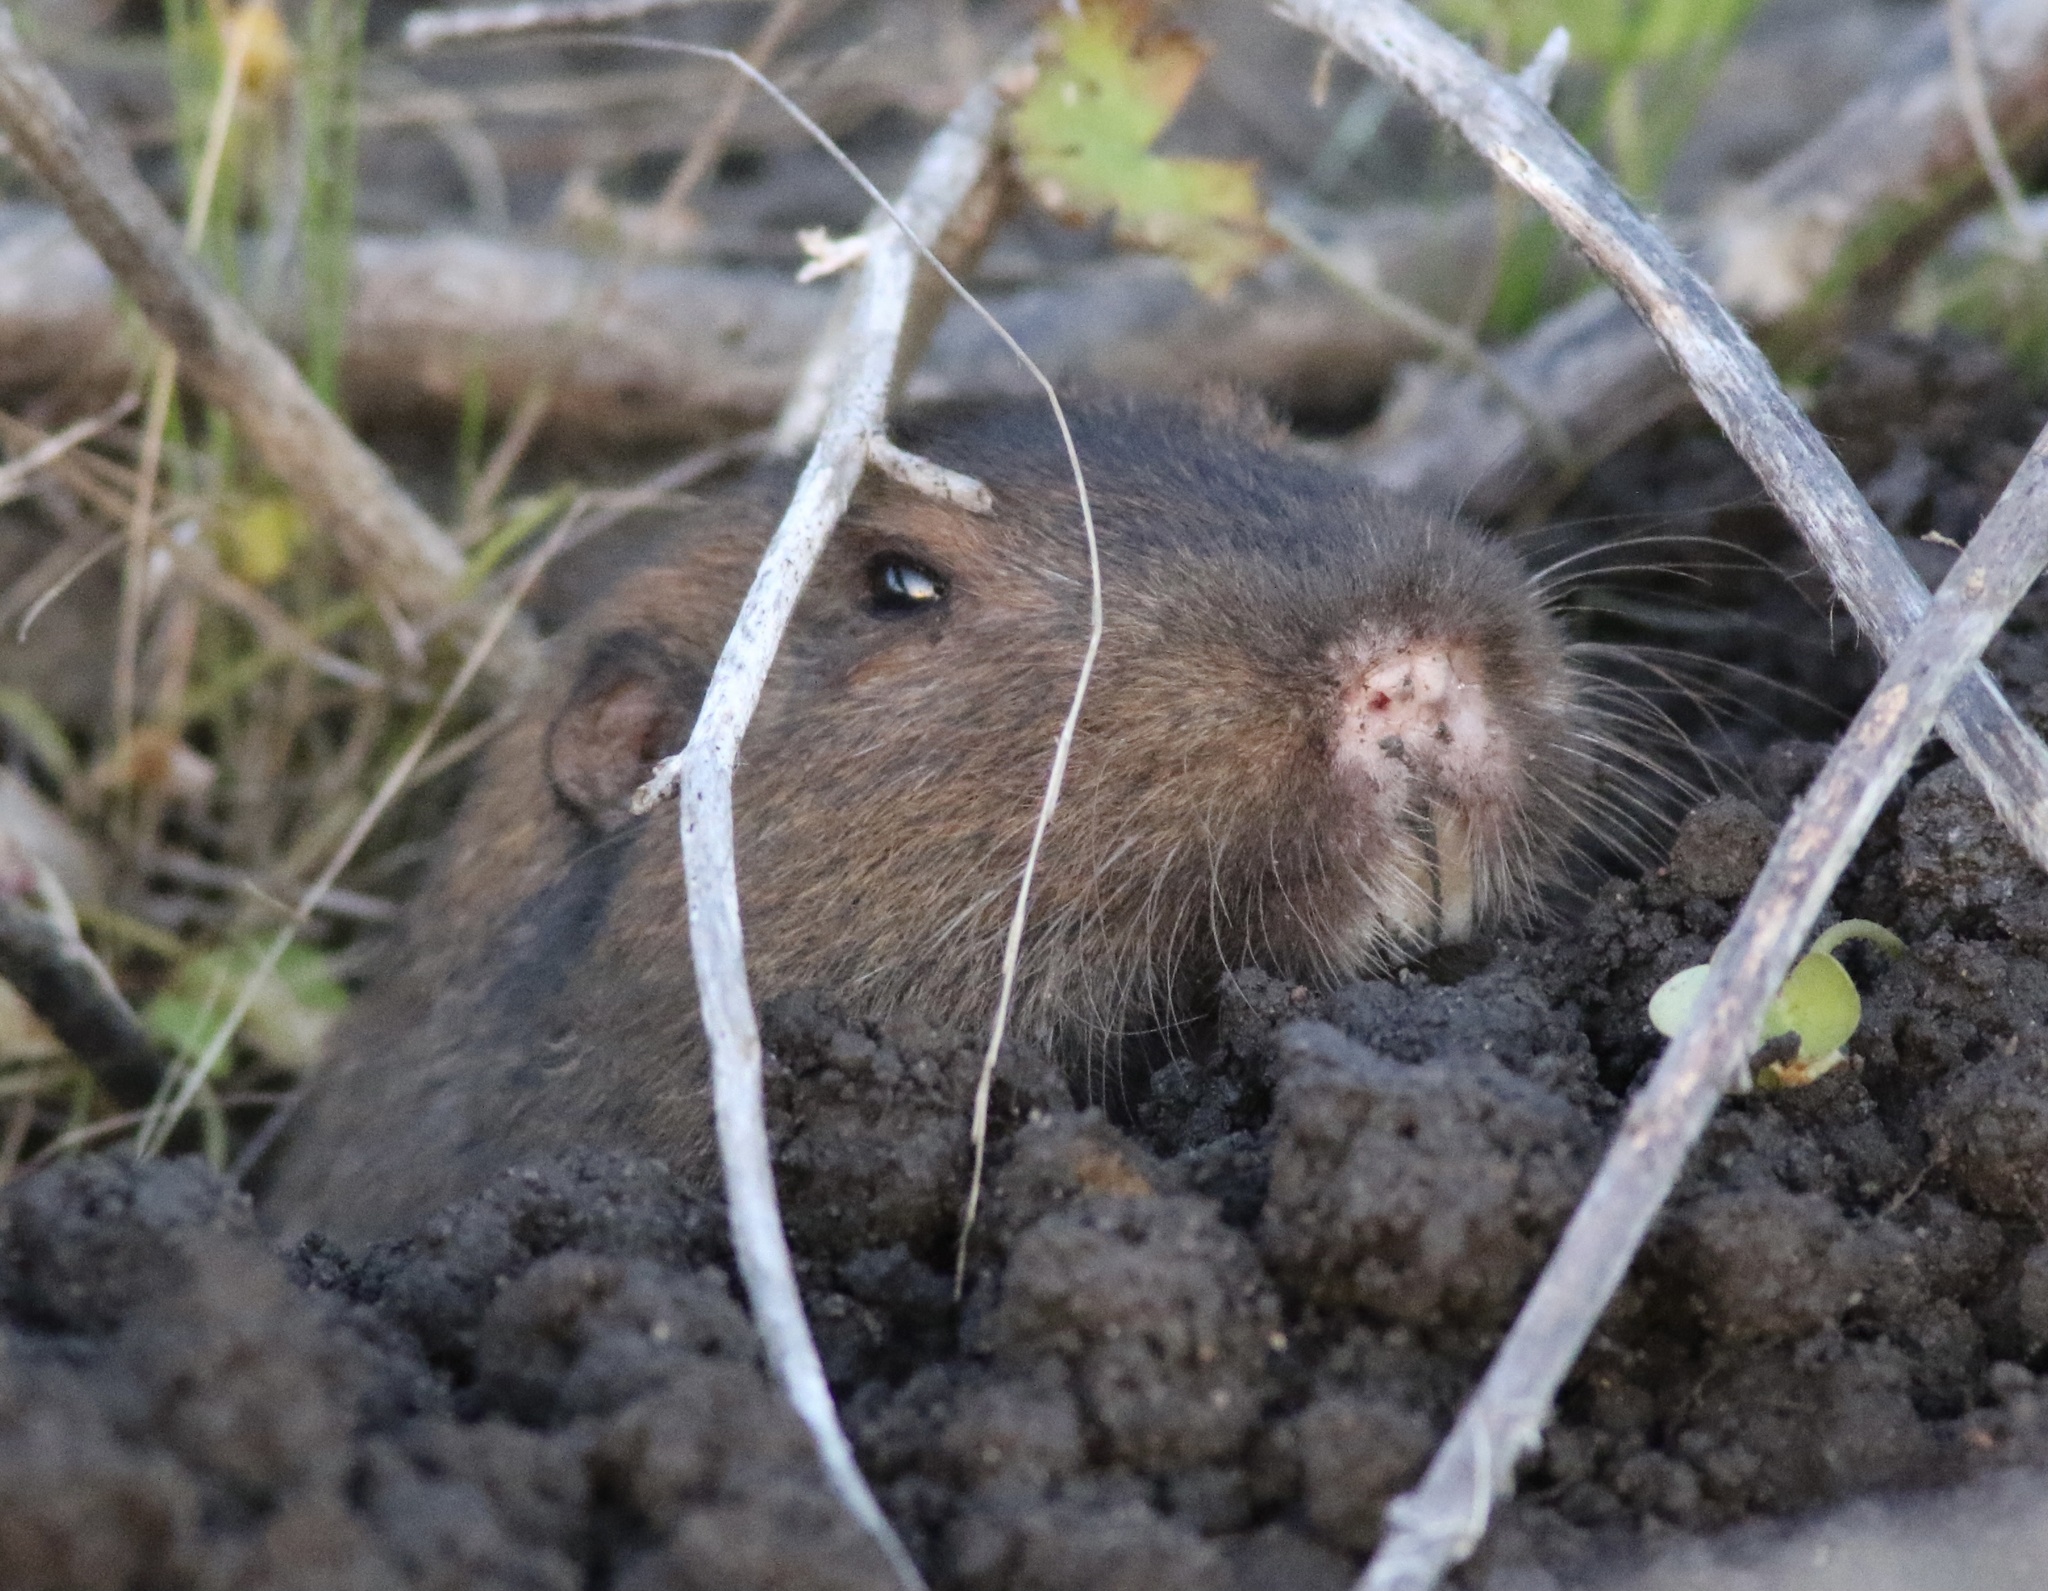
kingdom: Animalia
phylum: Chordata
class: Mammalia
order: Rodentia
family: Geomyidae
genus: Thomomys
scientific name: Thomomys bottae
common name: Botta's pocket gopher
